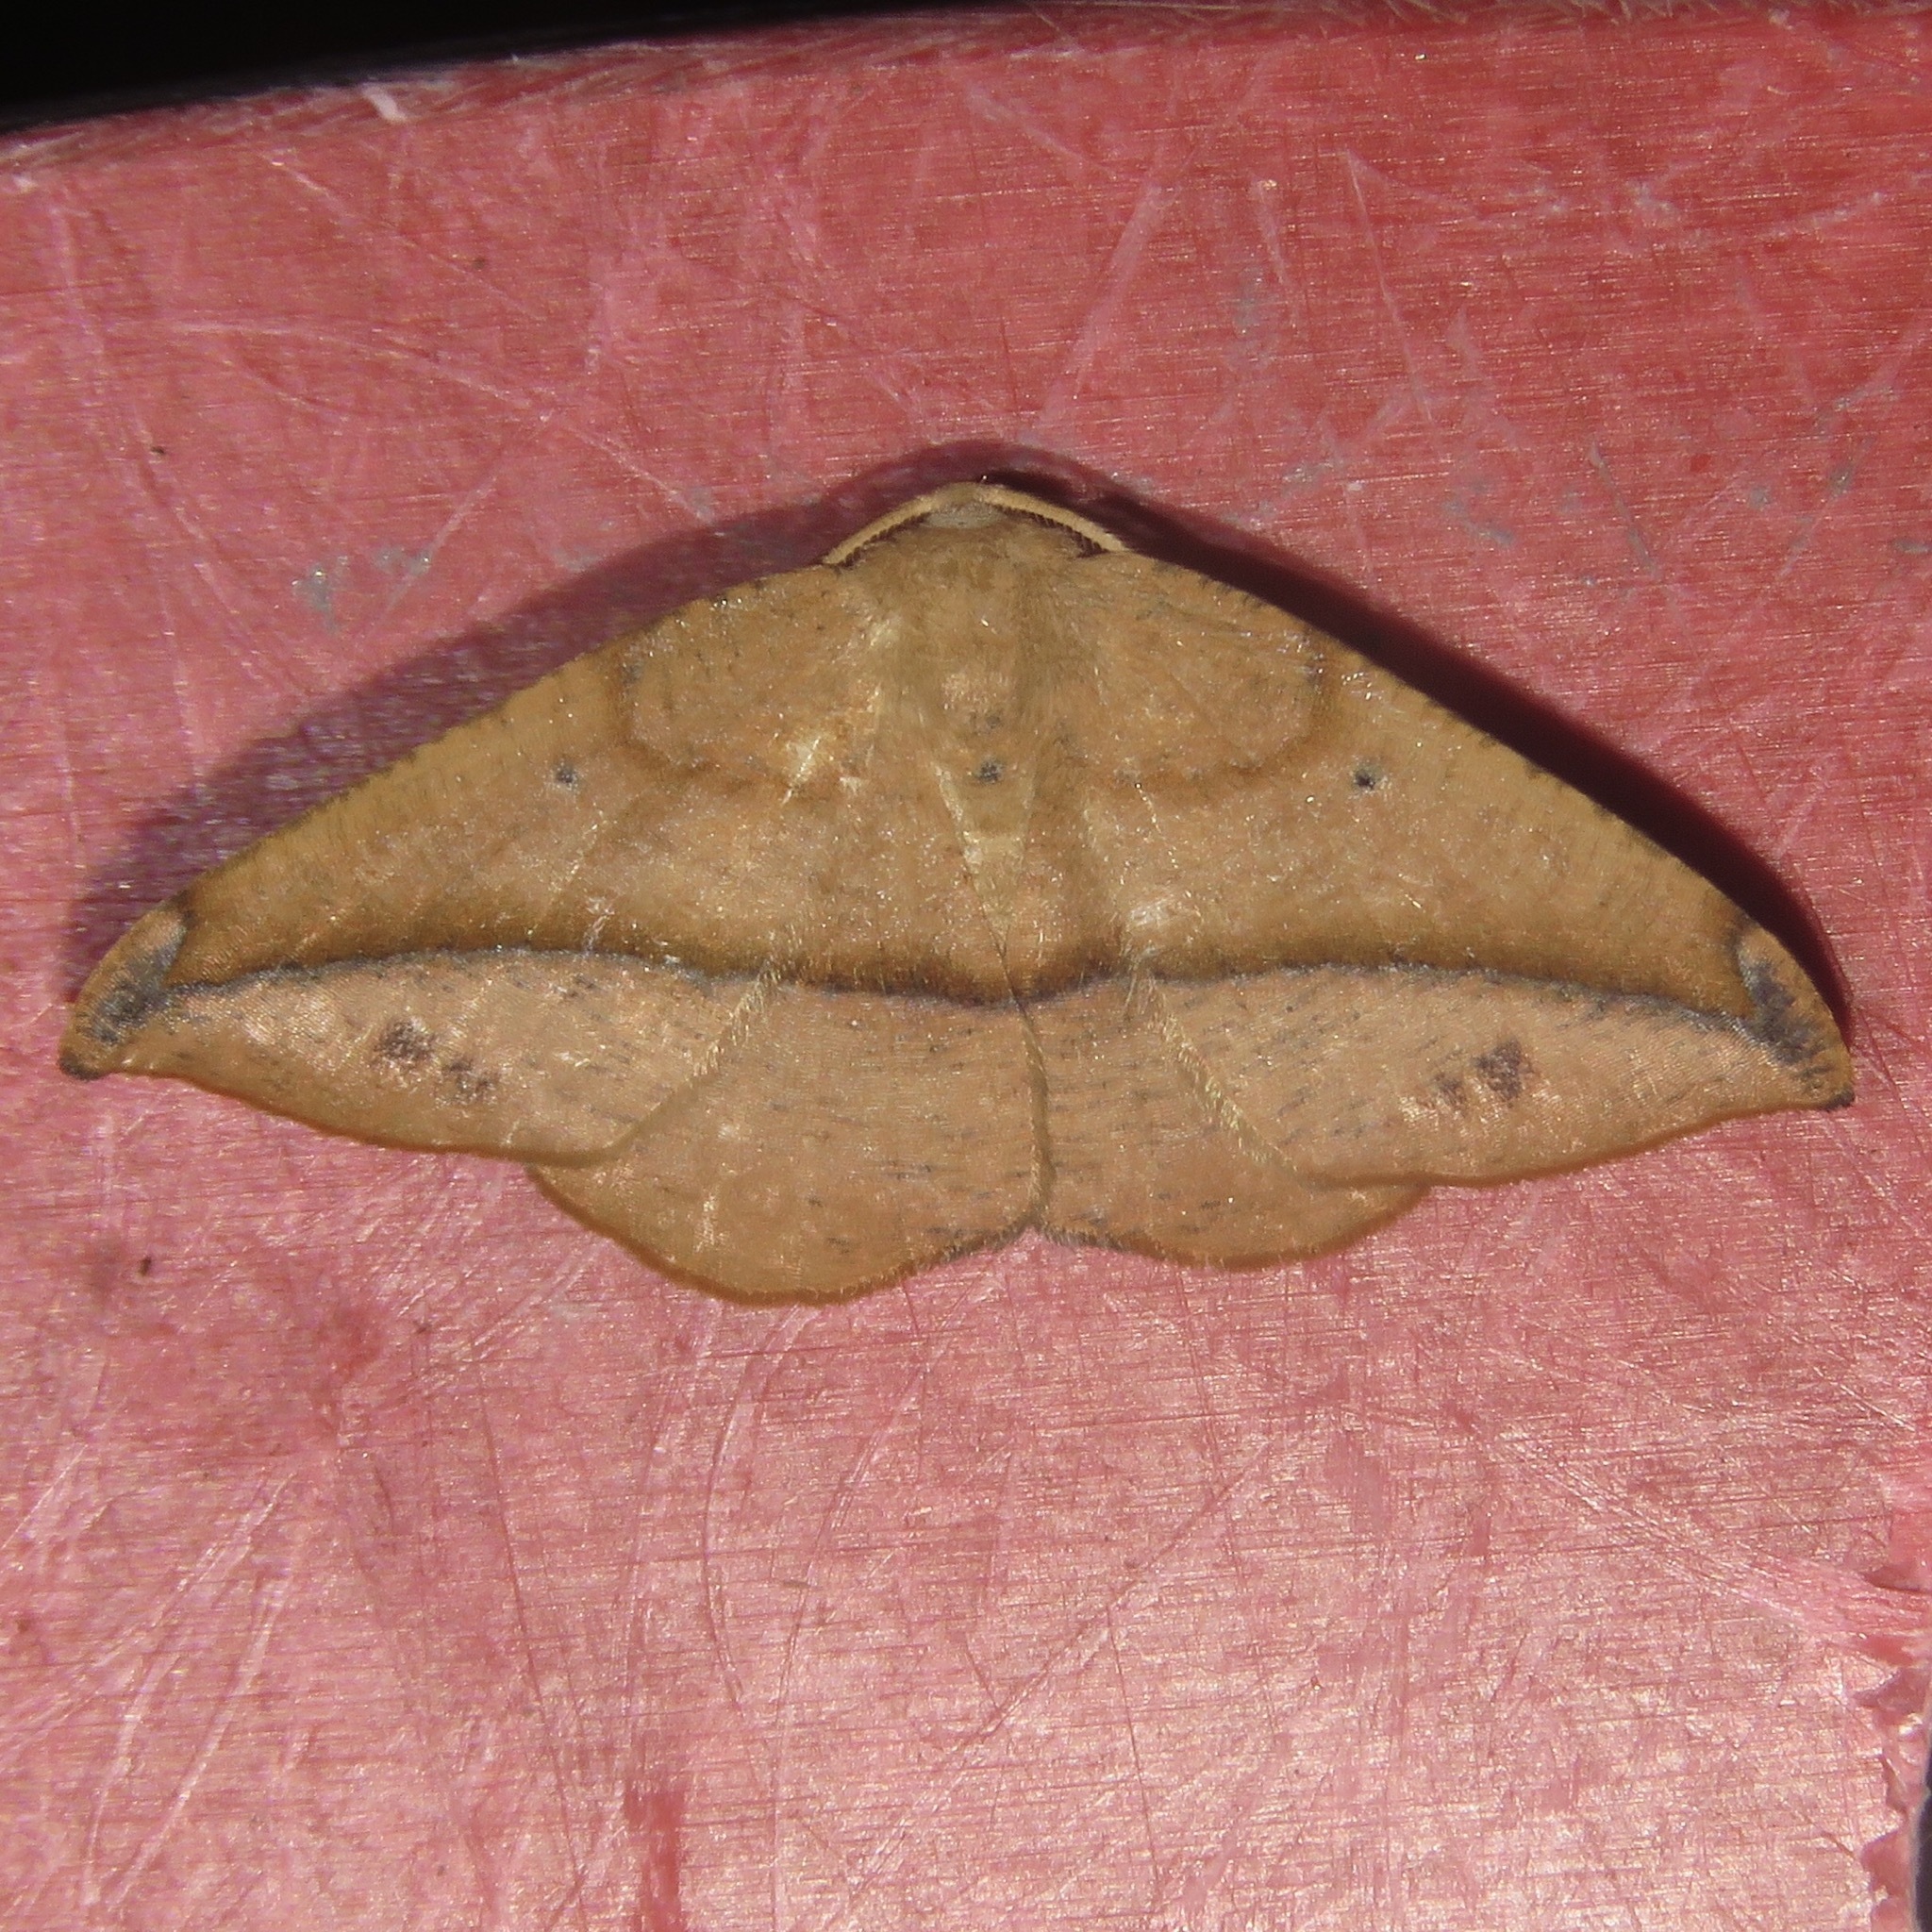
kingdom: Animalia
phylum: Arthropoda
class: Insecta
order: Lepidoptera
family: Geometridae
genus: Patalene
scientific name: Patalene olyzonaria
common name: Juniper geometer moth
